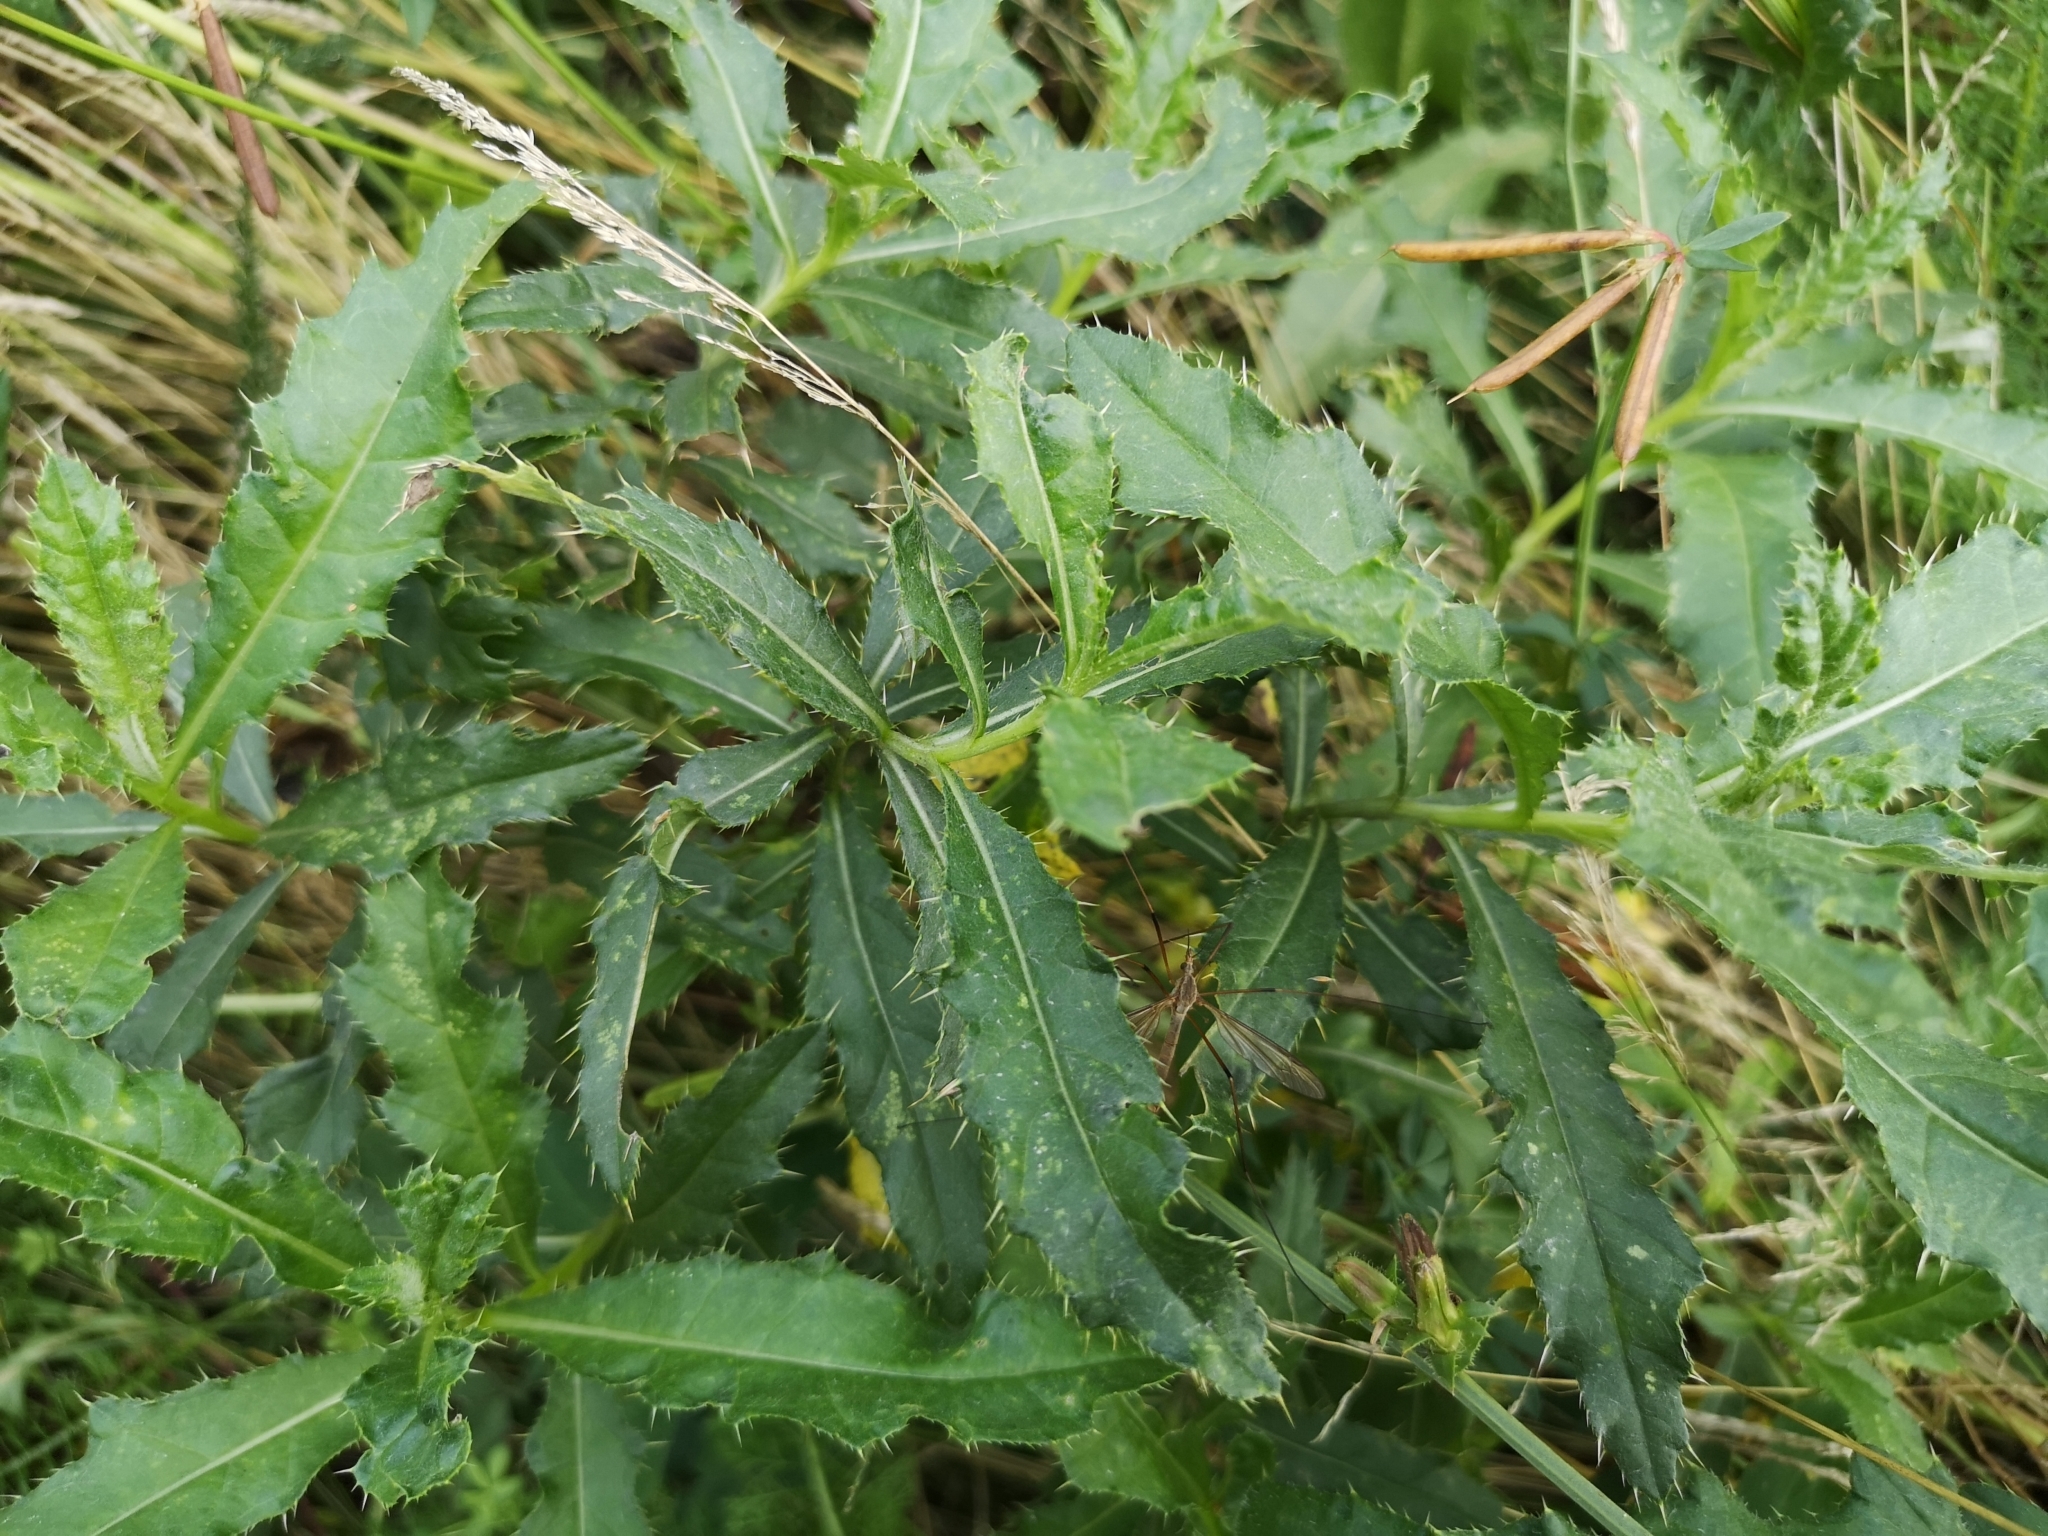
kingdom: Plantae
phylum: Tracheophyta
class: Magnoliopsida
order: Asterales
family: Asteraceae
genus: Cirsium
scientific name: Cirsium arvense
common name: Creeping thistle
